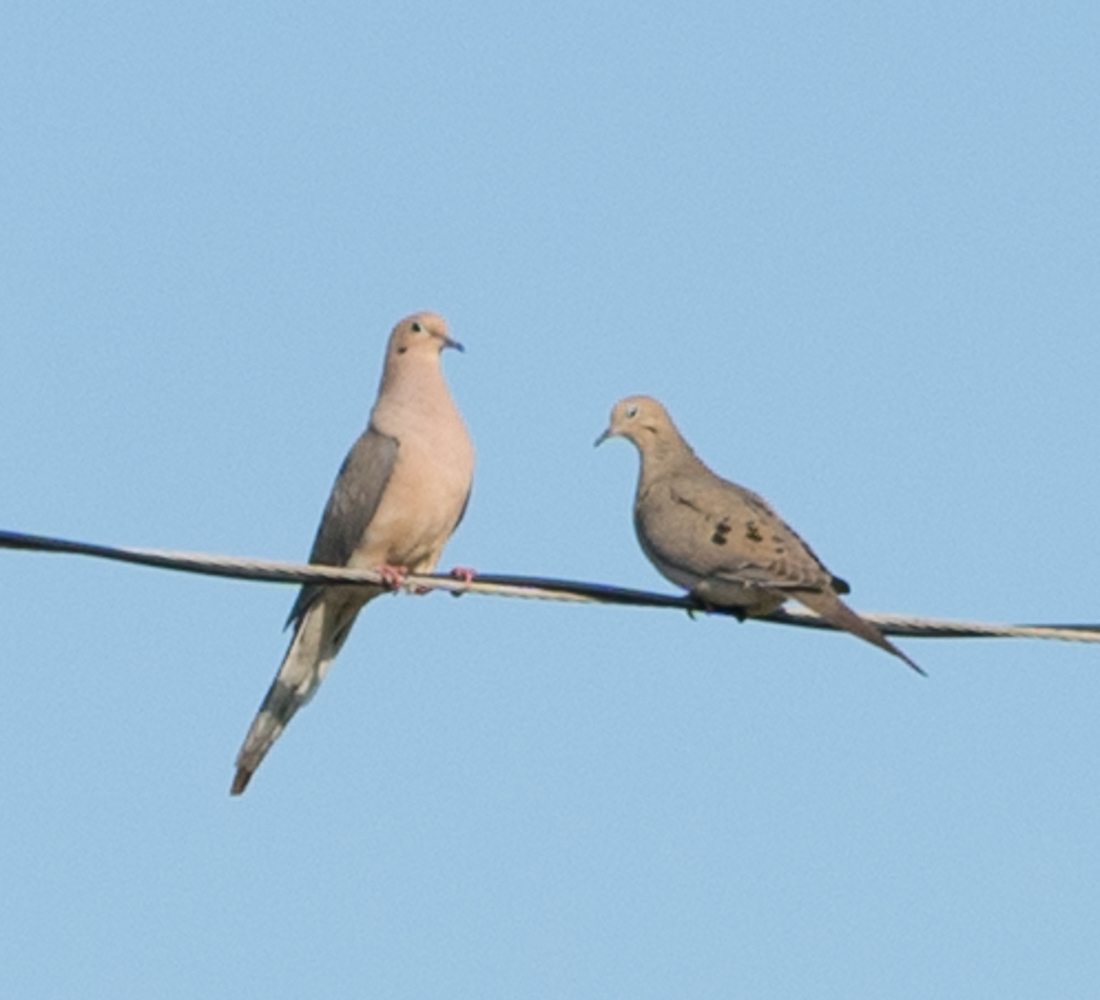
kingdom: Animalia
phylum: Chordata
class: Aves
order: Columbiformes
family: Columbidae
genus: Zenaida
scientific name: Zenaida macroura
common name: Mourning dove
